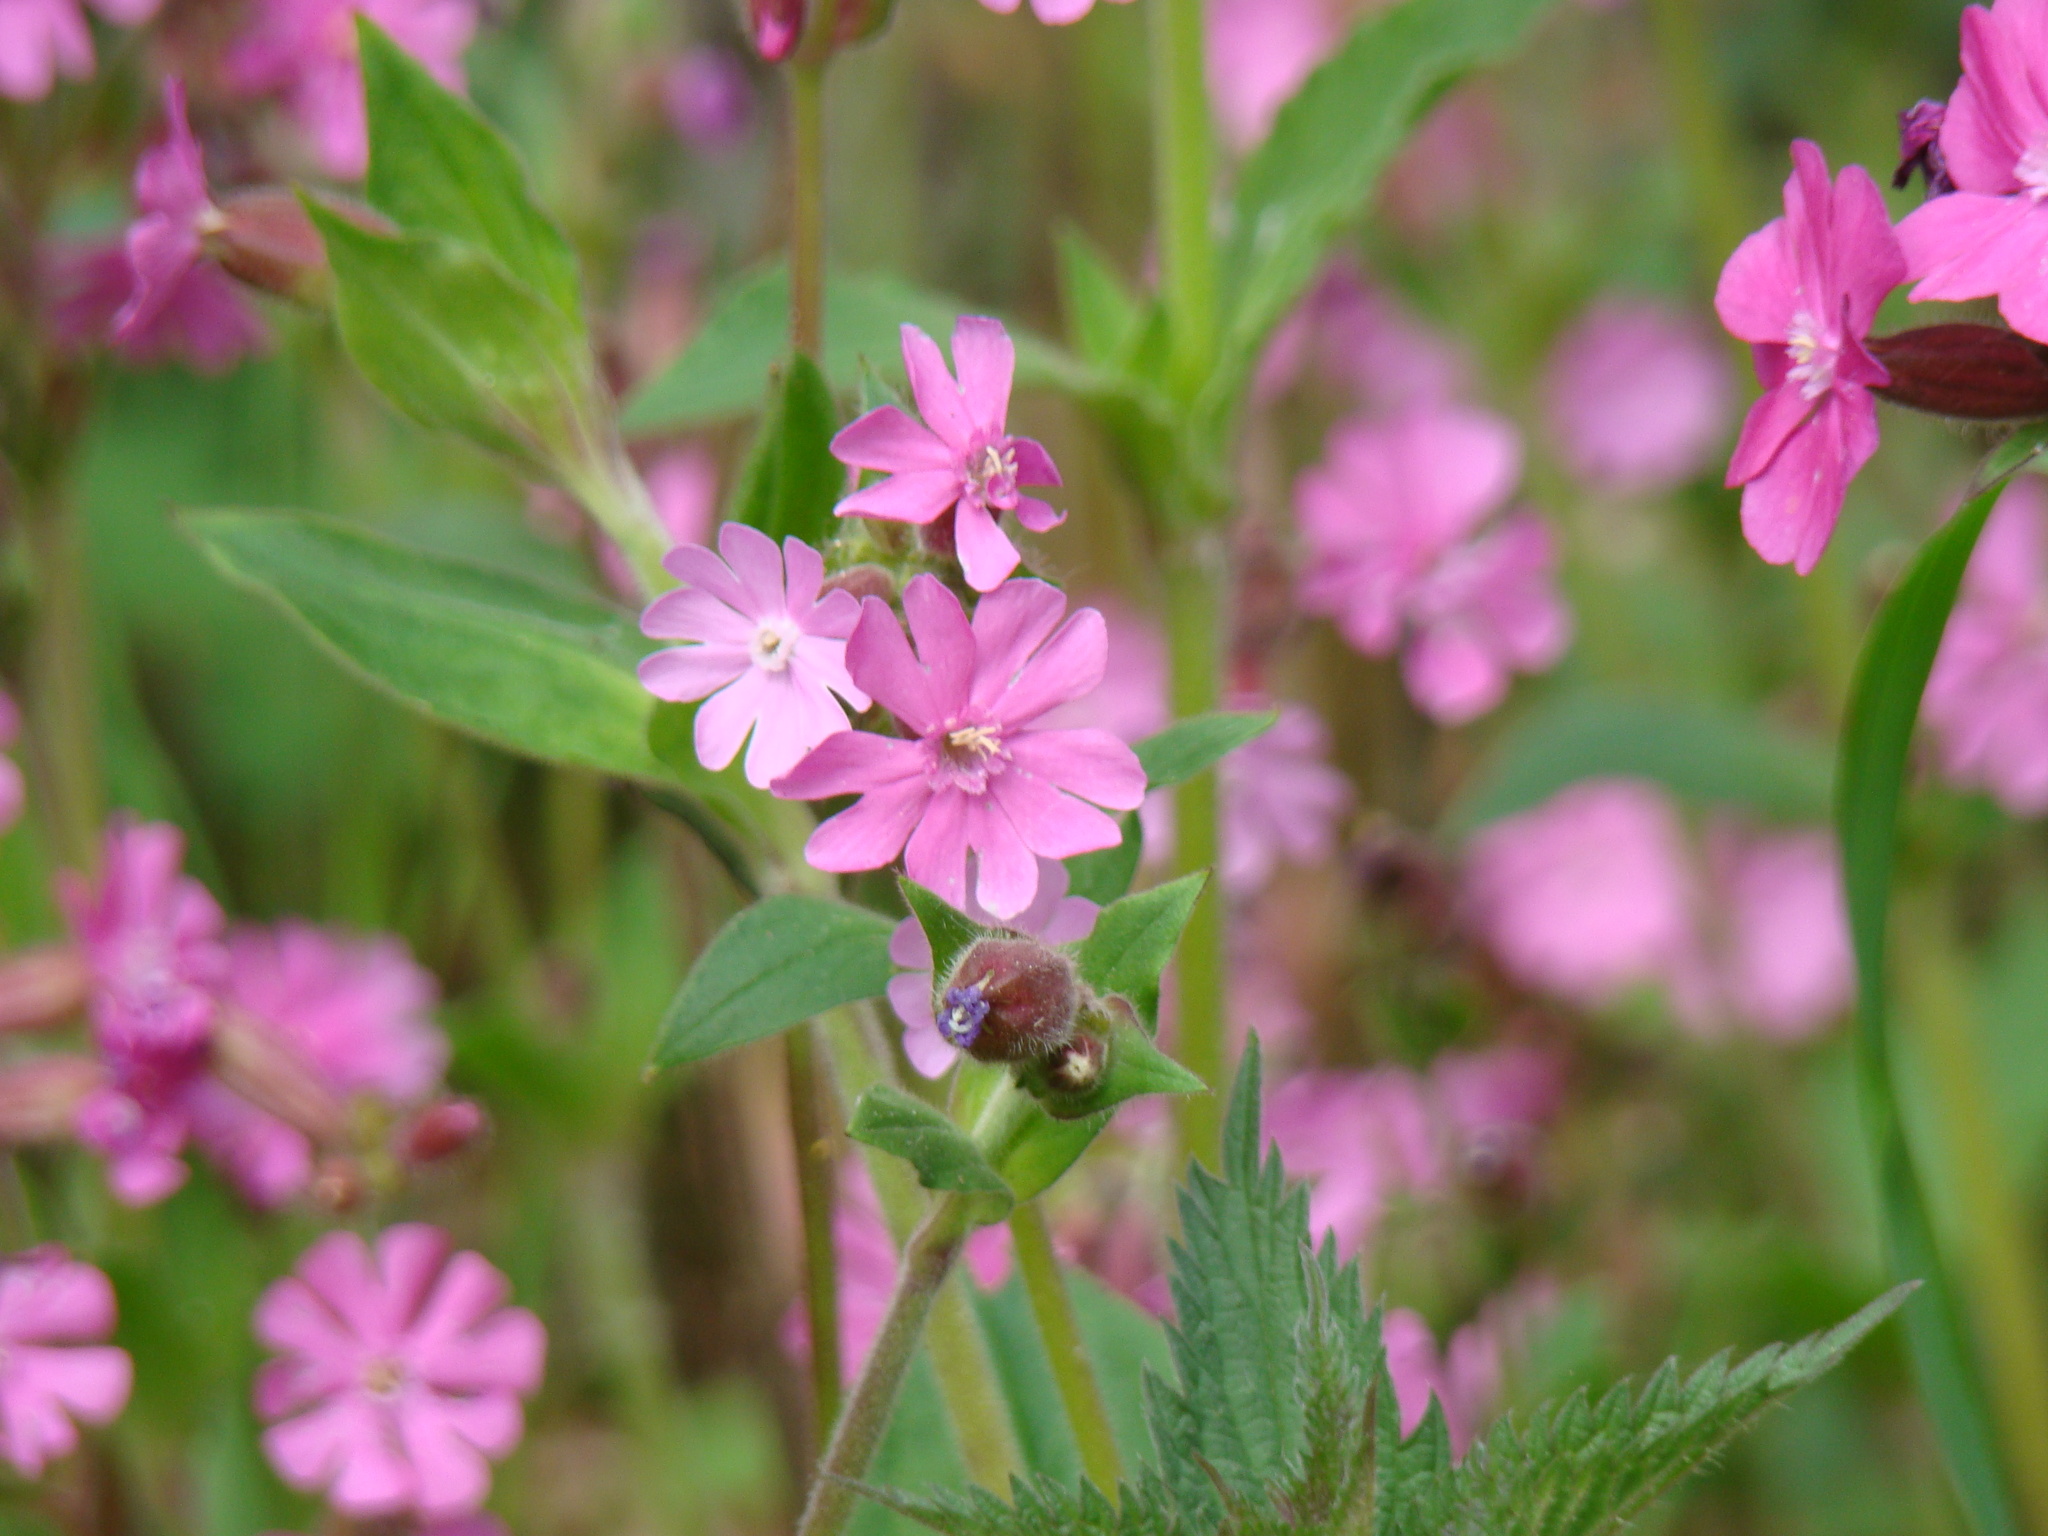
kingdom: Plantae
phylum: Tracheophyta
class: Magnoliopsida
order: Caryophyllales
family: Caryophyllaceae
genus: Silene
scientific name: Silene dioica
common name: Red campion
